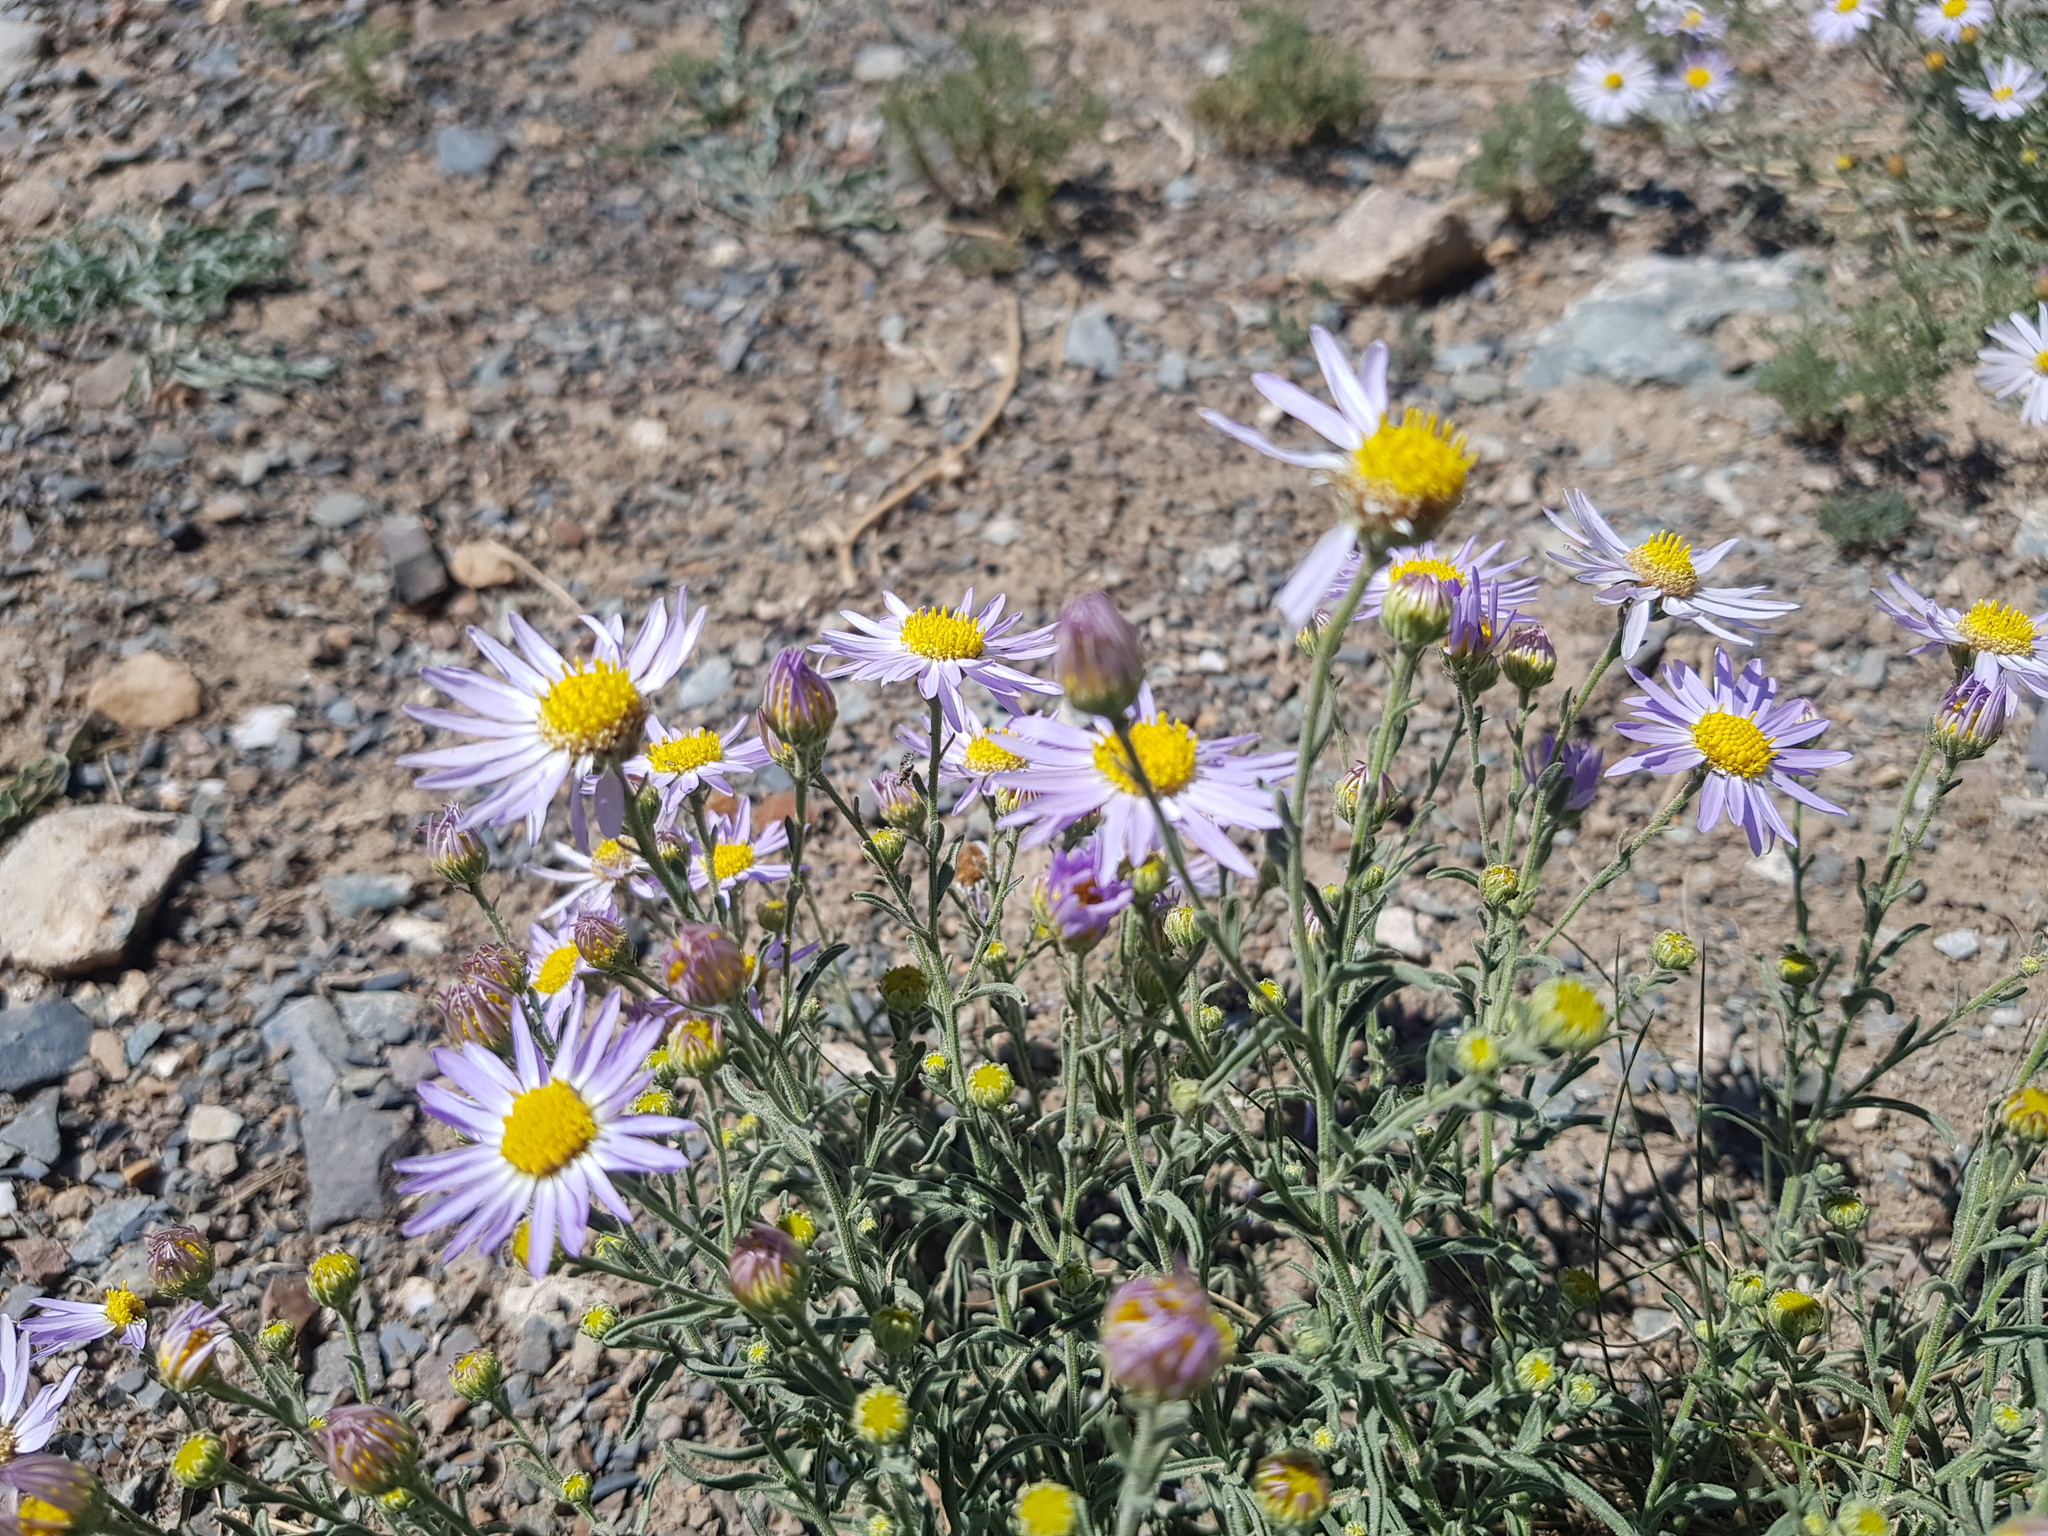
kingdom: Plantae
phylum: Tracheophyta
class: Magnoliopsida
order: Asterales
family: Asteraceae
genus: Heteropappus
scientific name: Heteropappus altaicus
